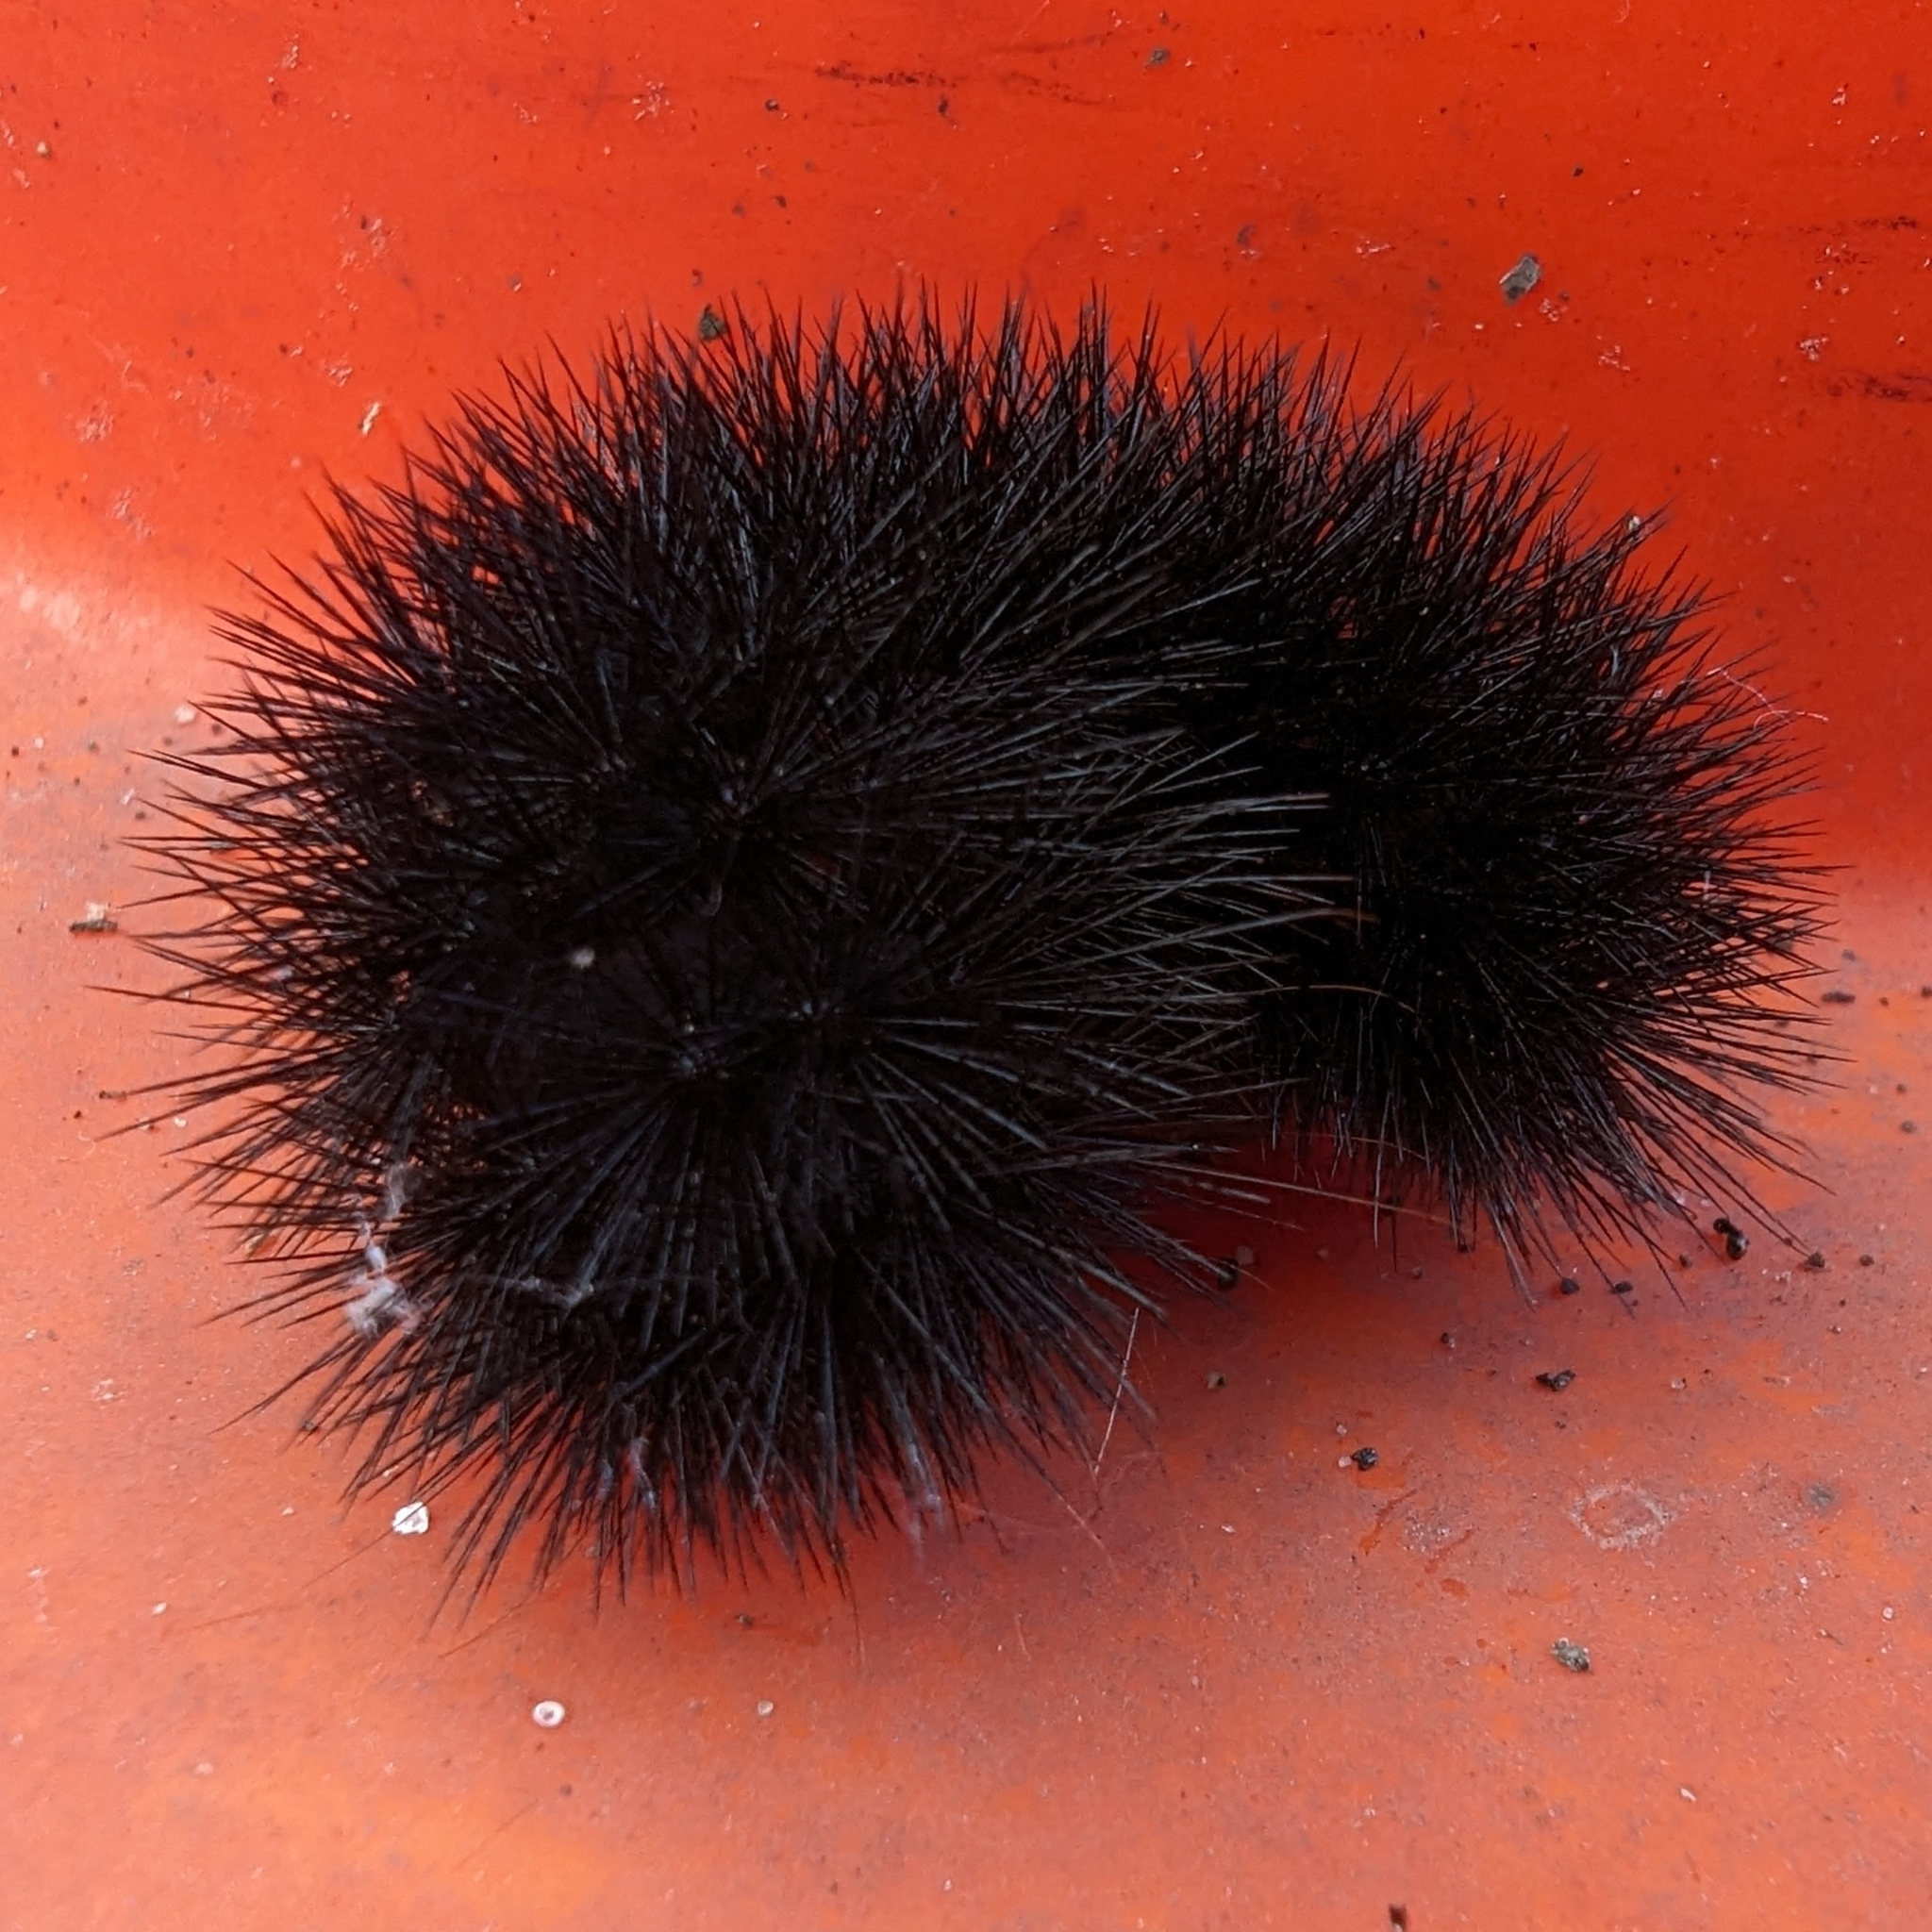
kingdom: Animalia
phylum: Arthropoda
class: Insecta
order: Lepidoptera
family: Erebidae
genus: Hypercompe
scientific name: Hypercompe scribonia
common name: Giant leopard moth
